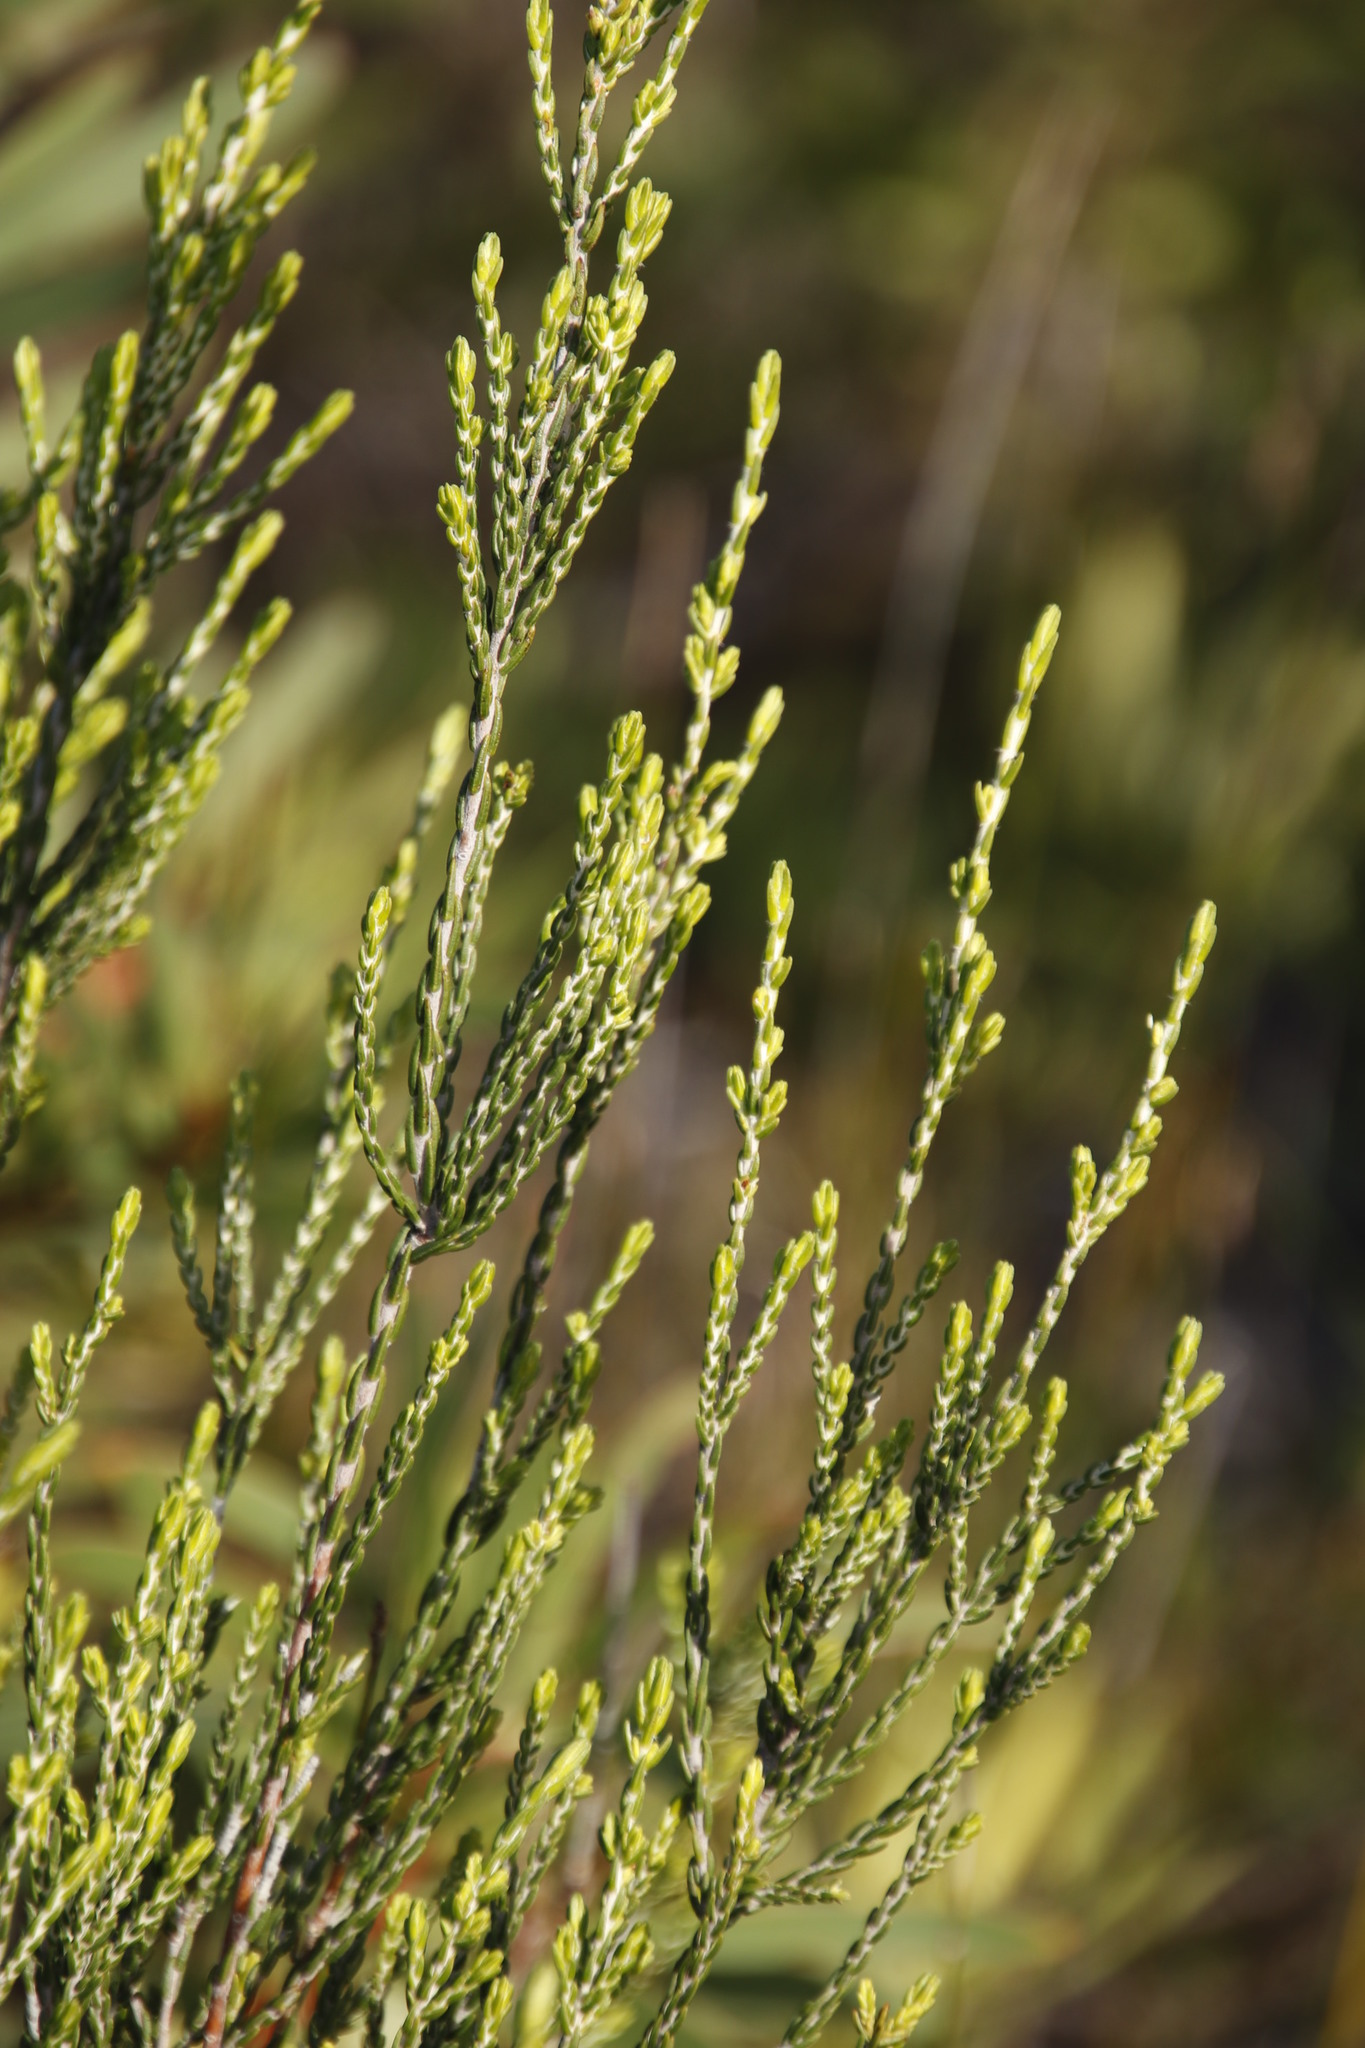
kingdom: Plantae
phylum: Tracheophyta
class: Magnoliopsida
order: Malvales
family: Thymelaeaceae
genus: Passerina
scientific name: Passerina corymbosa
